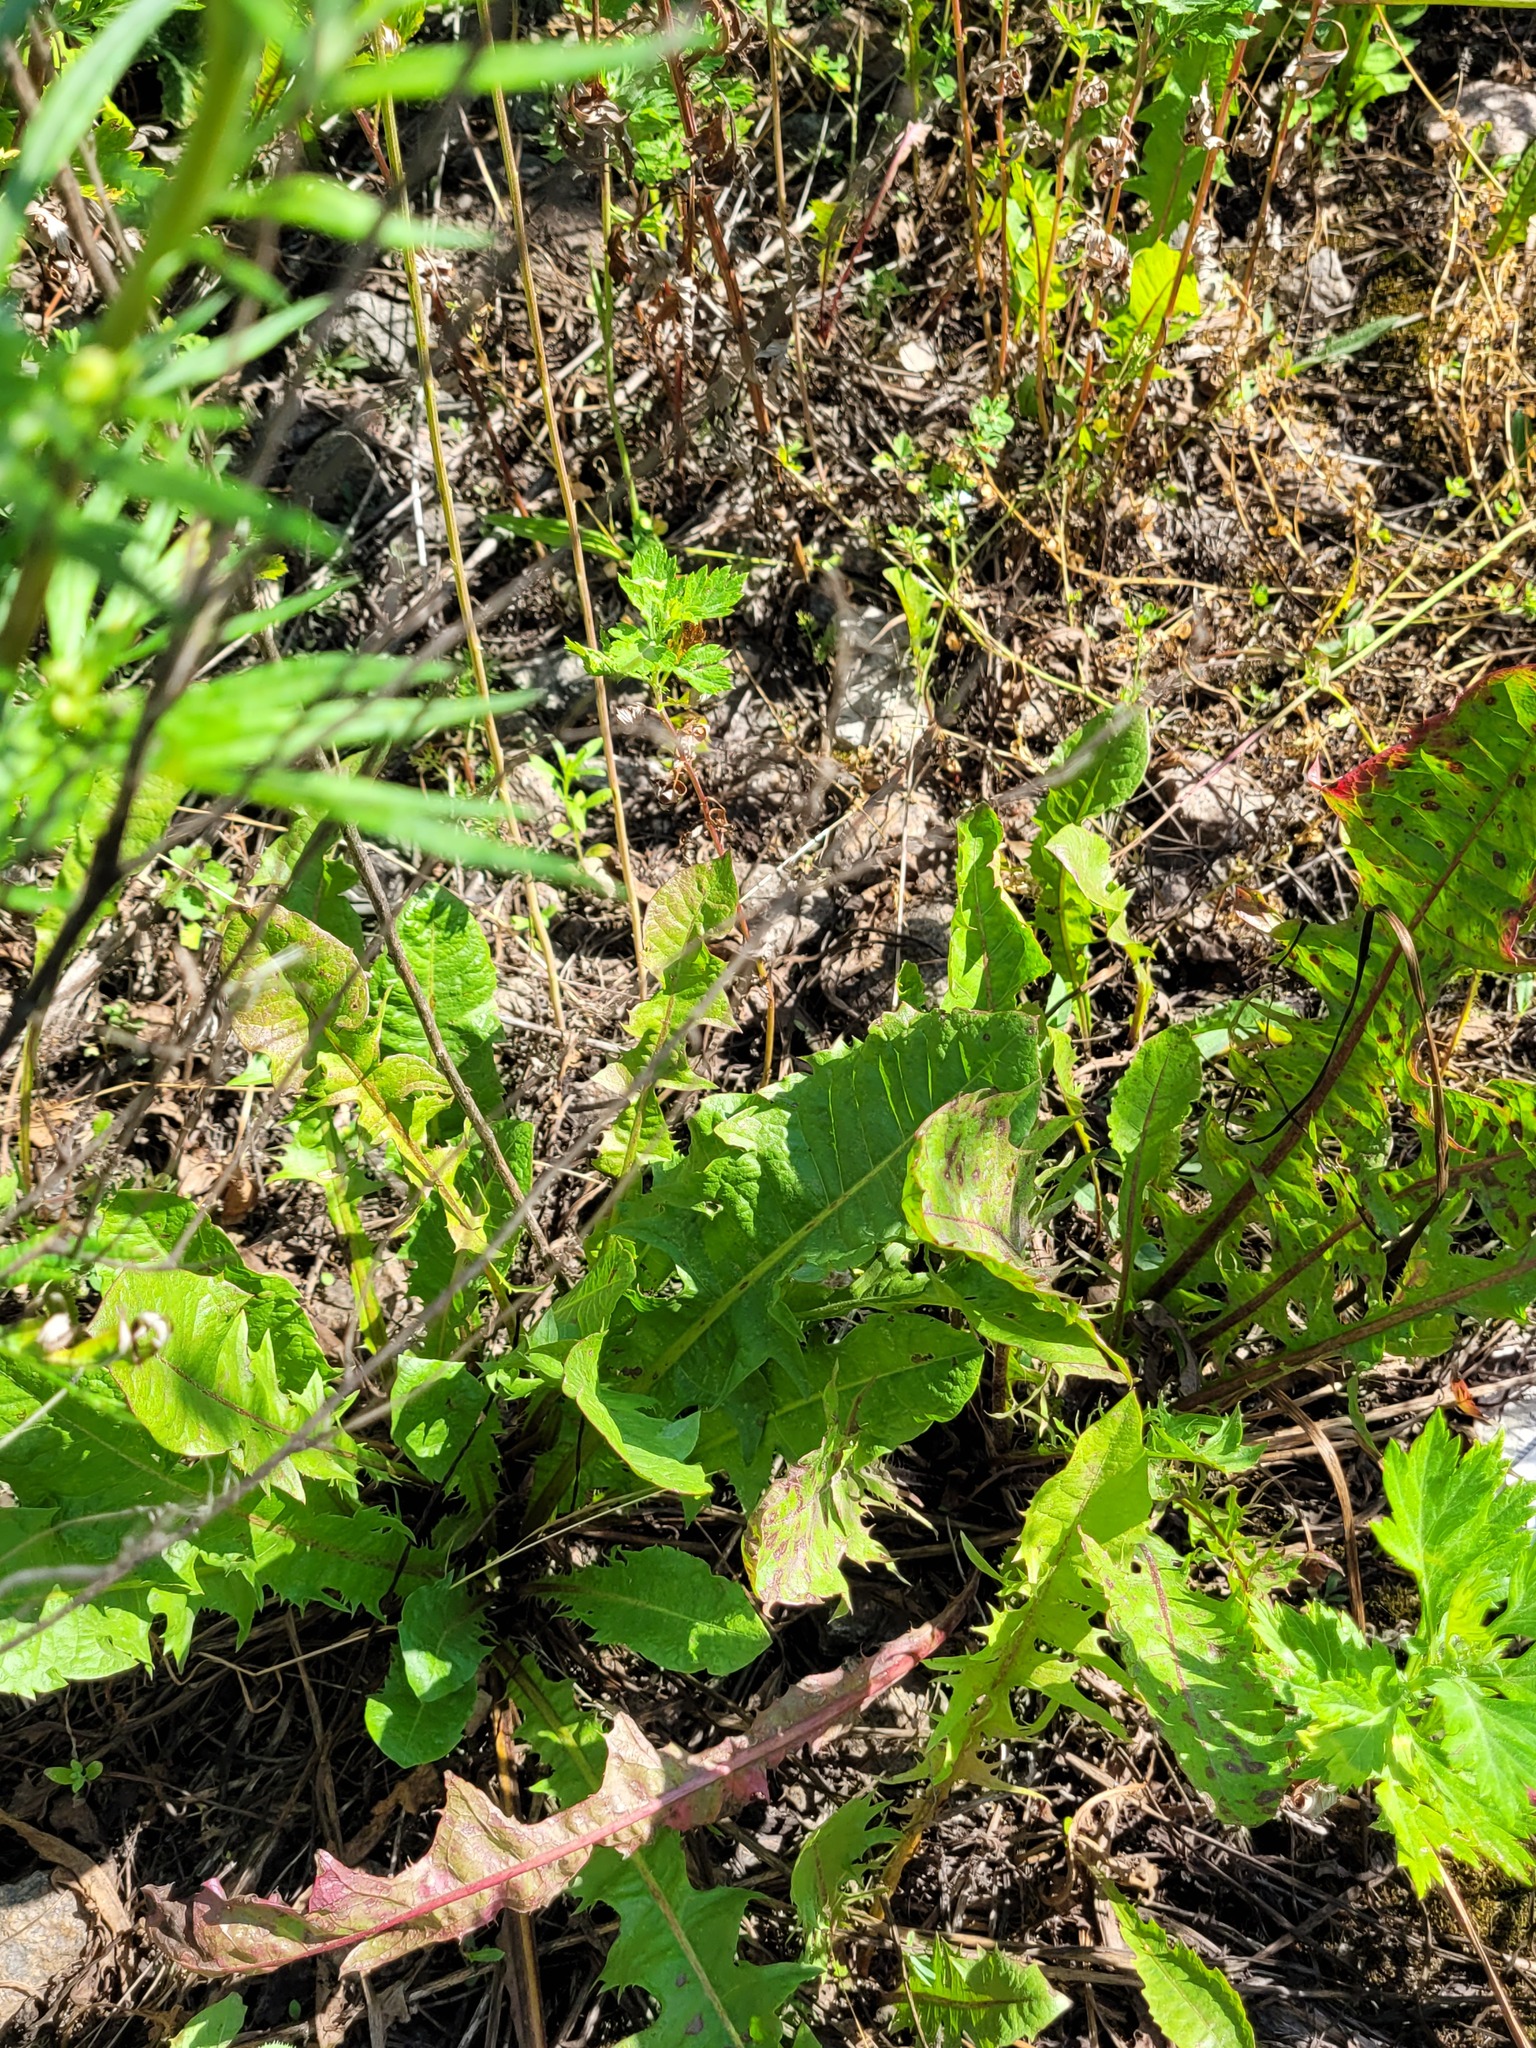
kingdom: Plantae
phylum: Tracheophyta
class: Magnoliopsida
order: Asterales
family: Asteraceae
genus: Taraxacum
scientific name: Taraxacum officinale
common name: Common dandelion
